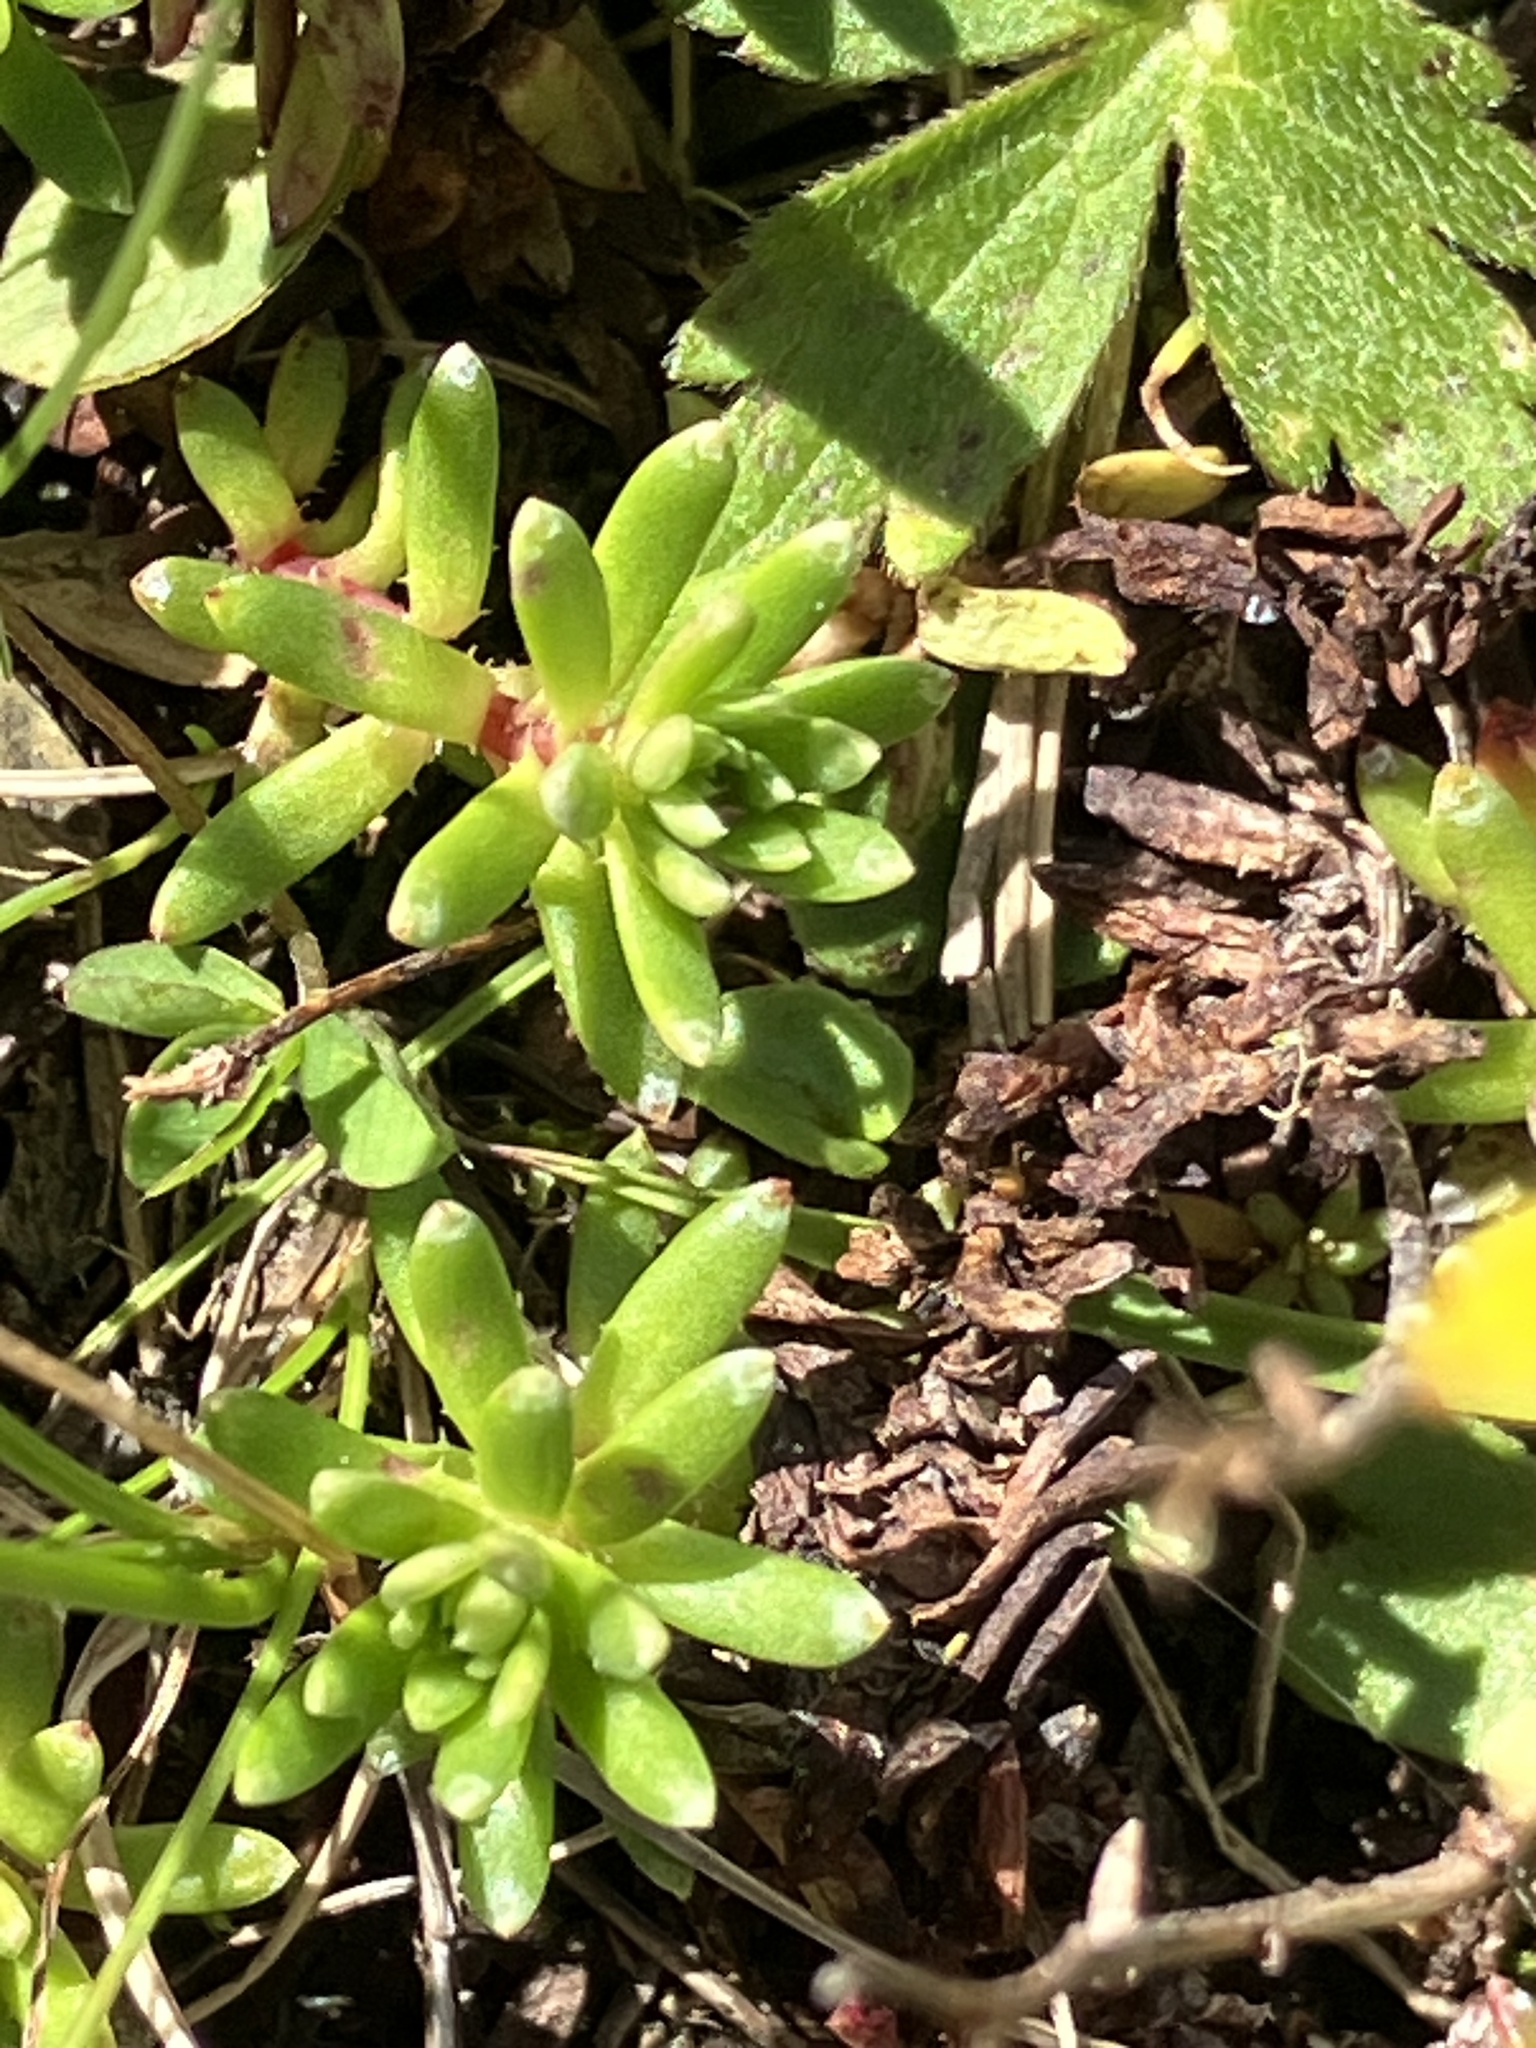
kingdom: Plantae
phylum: Tracheophyta
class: Magnoliopsida
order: Saxifragales
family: Saxifragaceae
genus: Saxifraga
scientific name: Saxifraga aizoides
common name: Yellow mountain saxifrage
